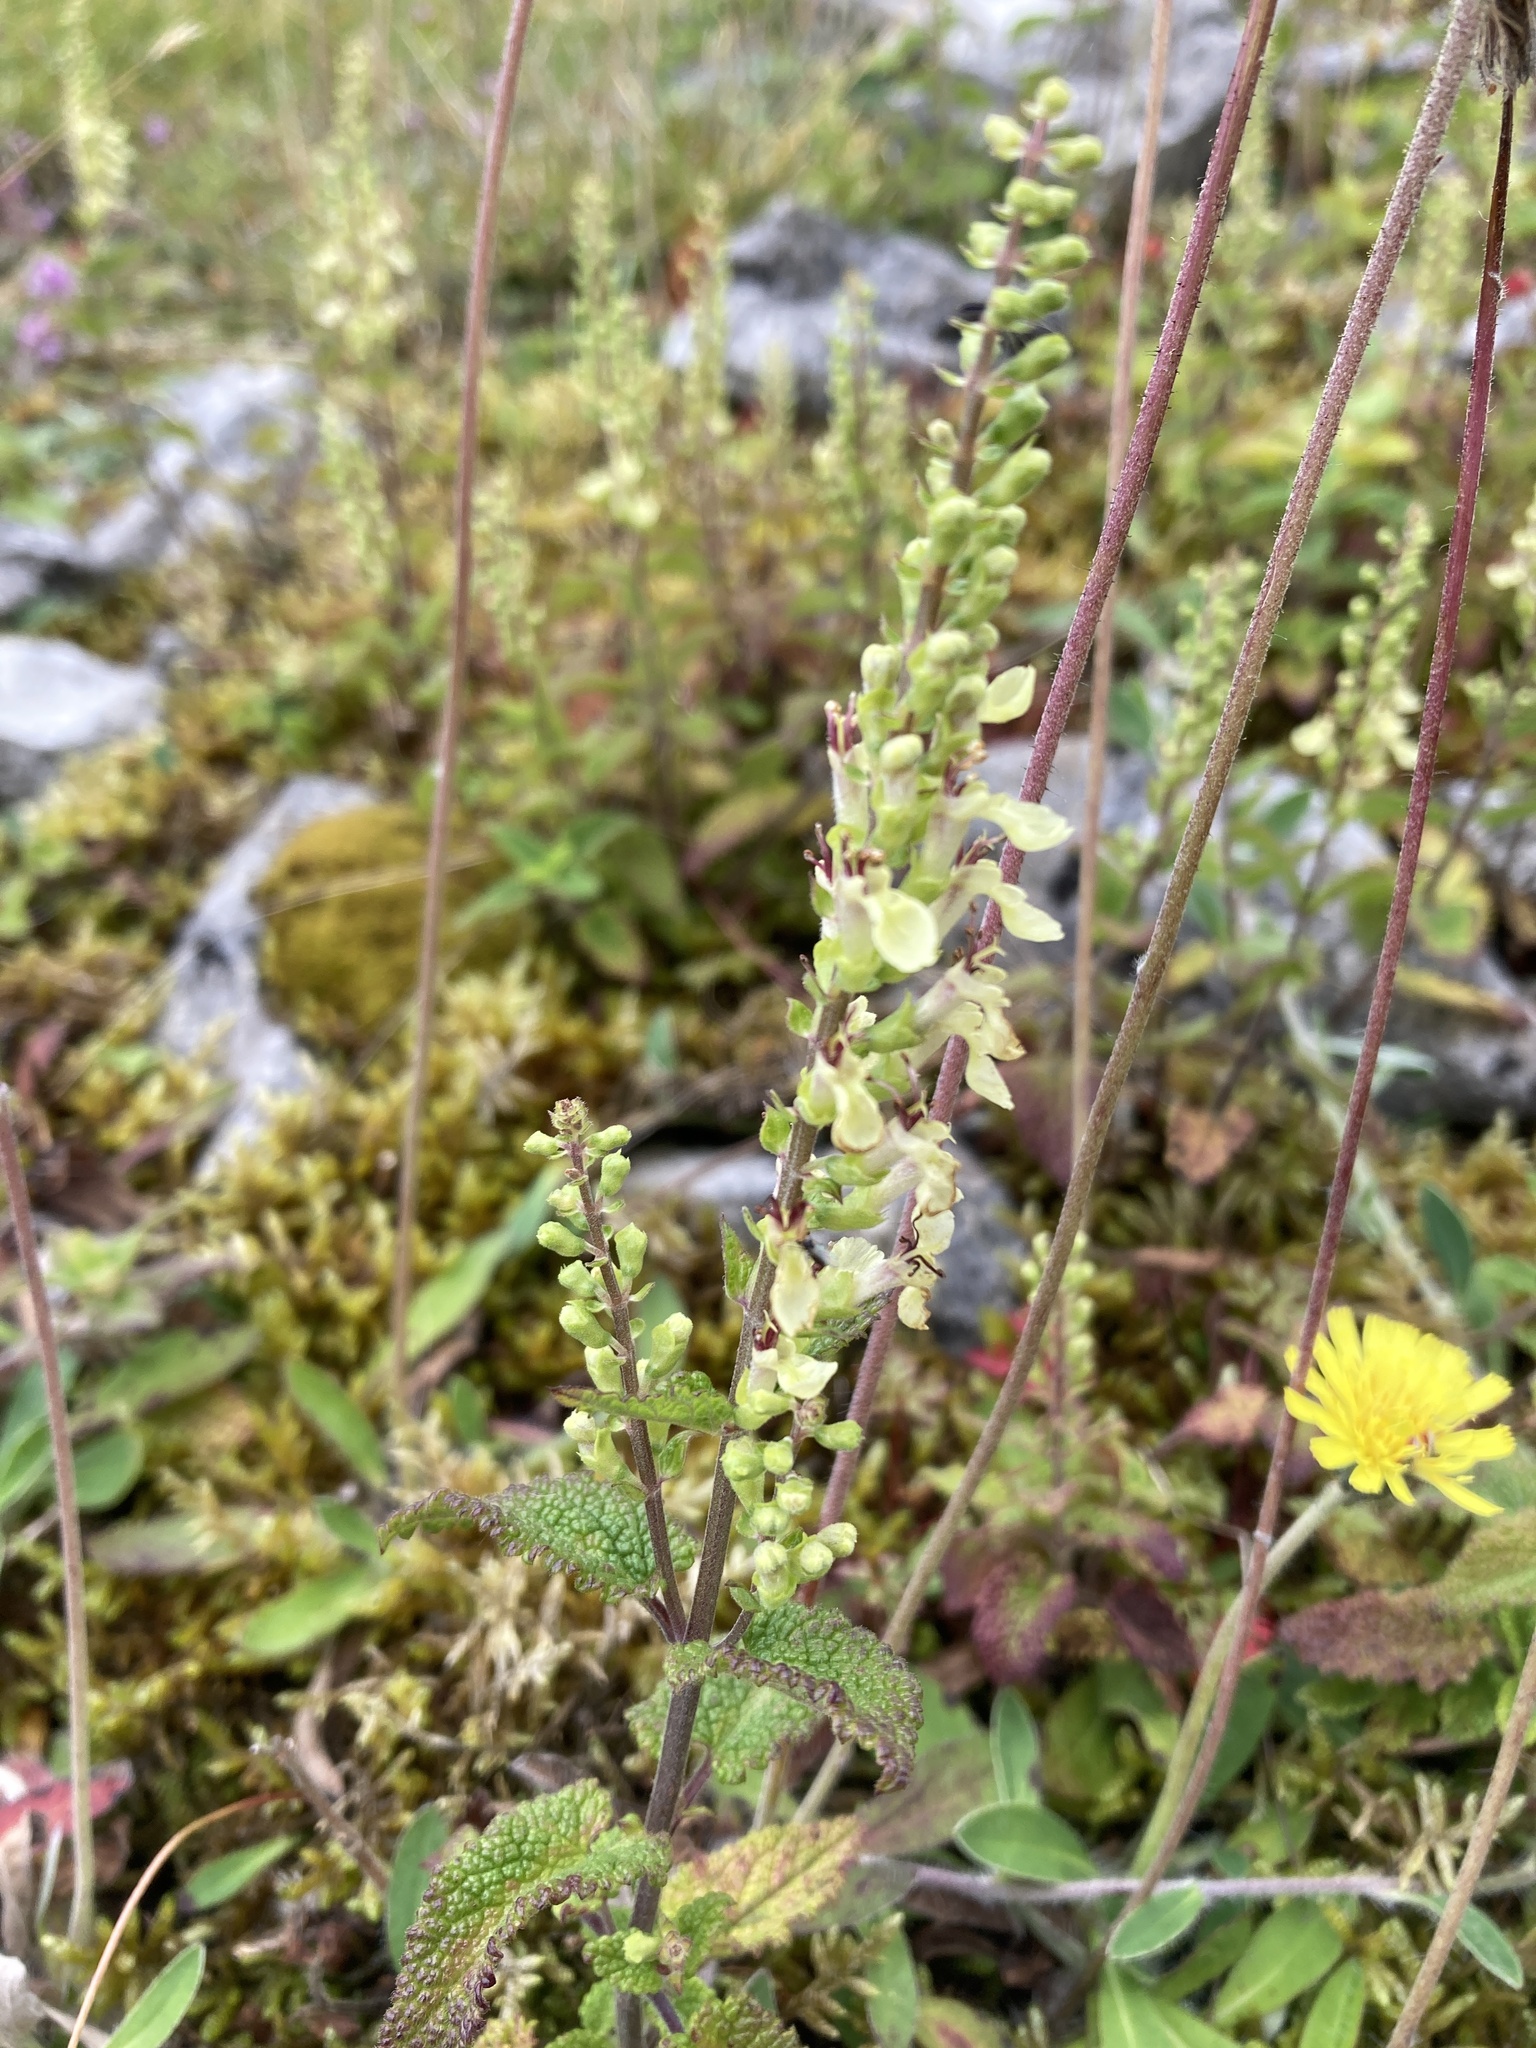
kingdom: Plantae
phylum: Tracheophyta
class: Magnoliopsida
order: Lamiales
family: Lamiaceae
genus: Teucrium
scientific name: Teucrium scorodonia
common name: Woodland germander
